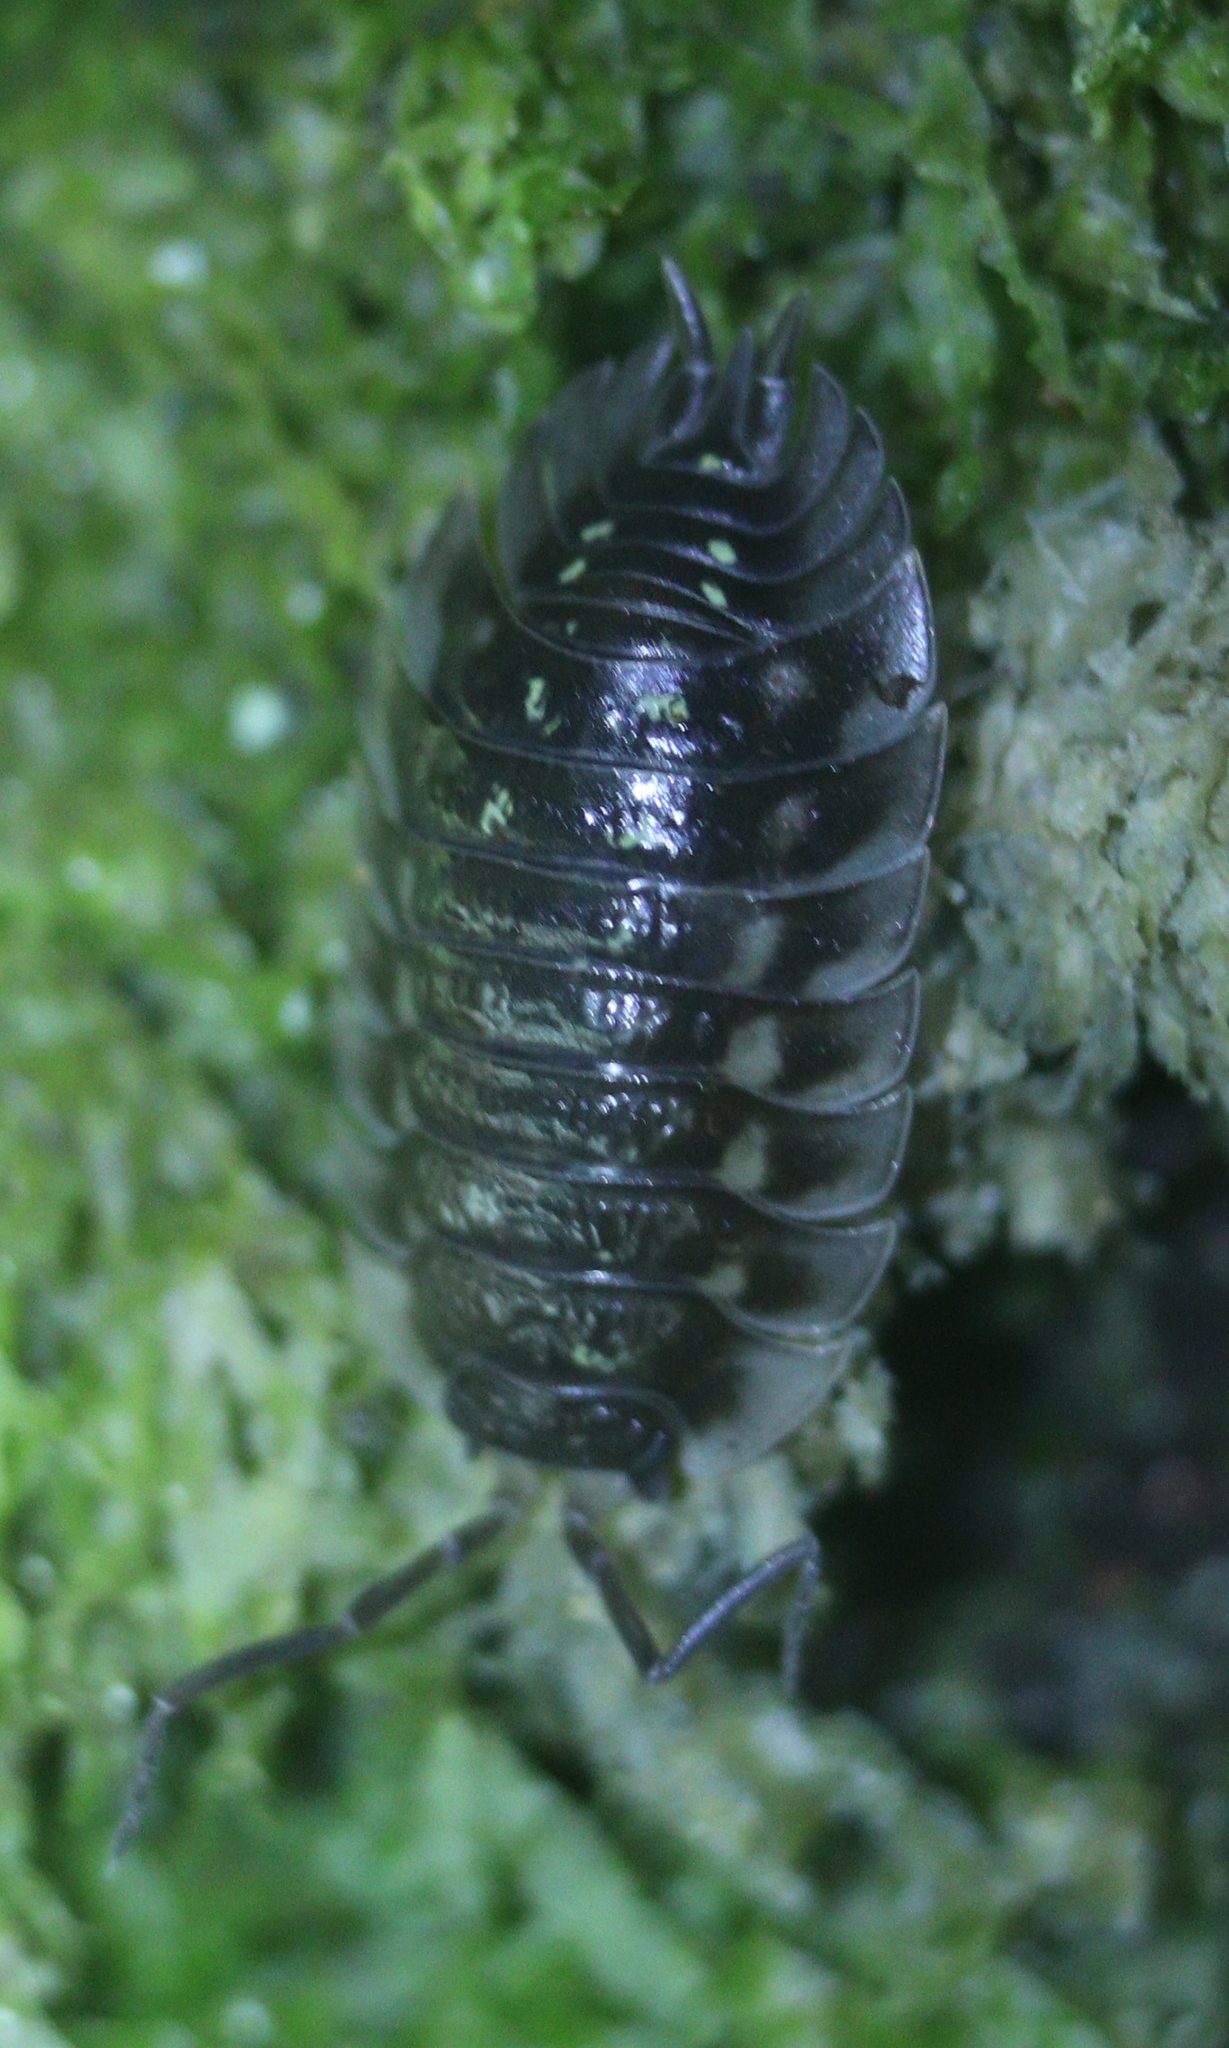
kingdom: Animalia
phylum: Arthropoda
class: Malacostraca
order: Isopoda
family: Oniscidae
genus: Oniscus
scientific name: Oniscus
